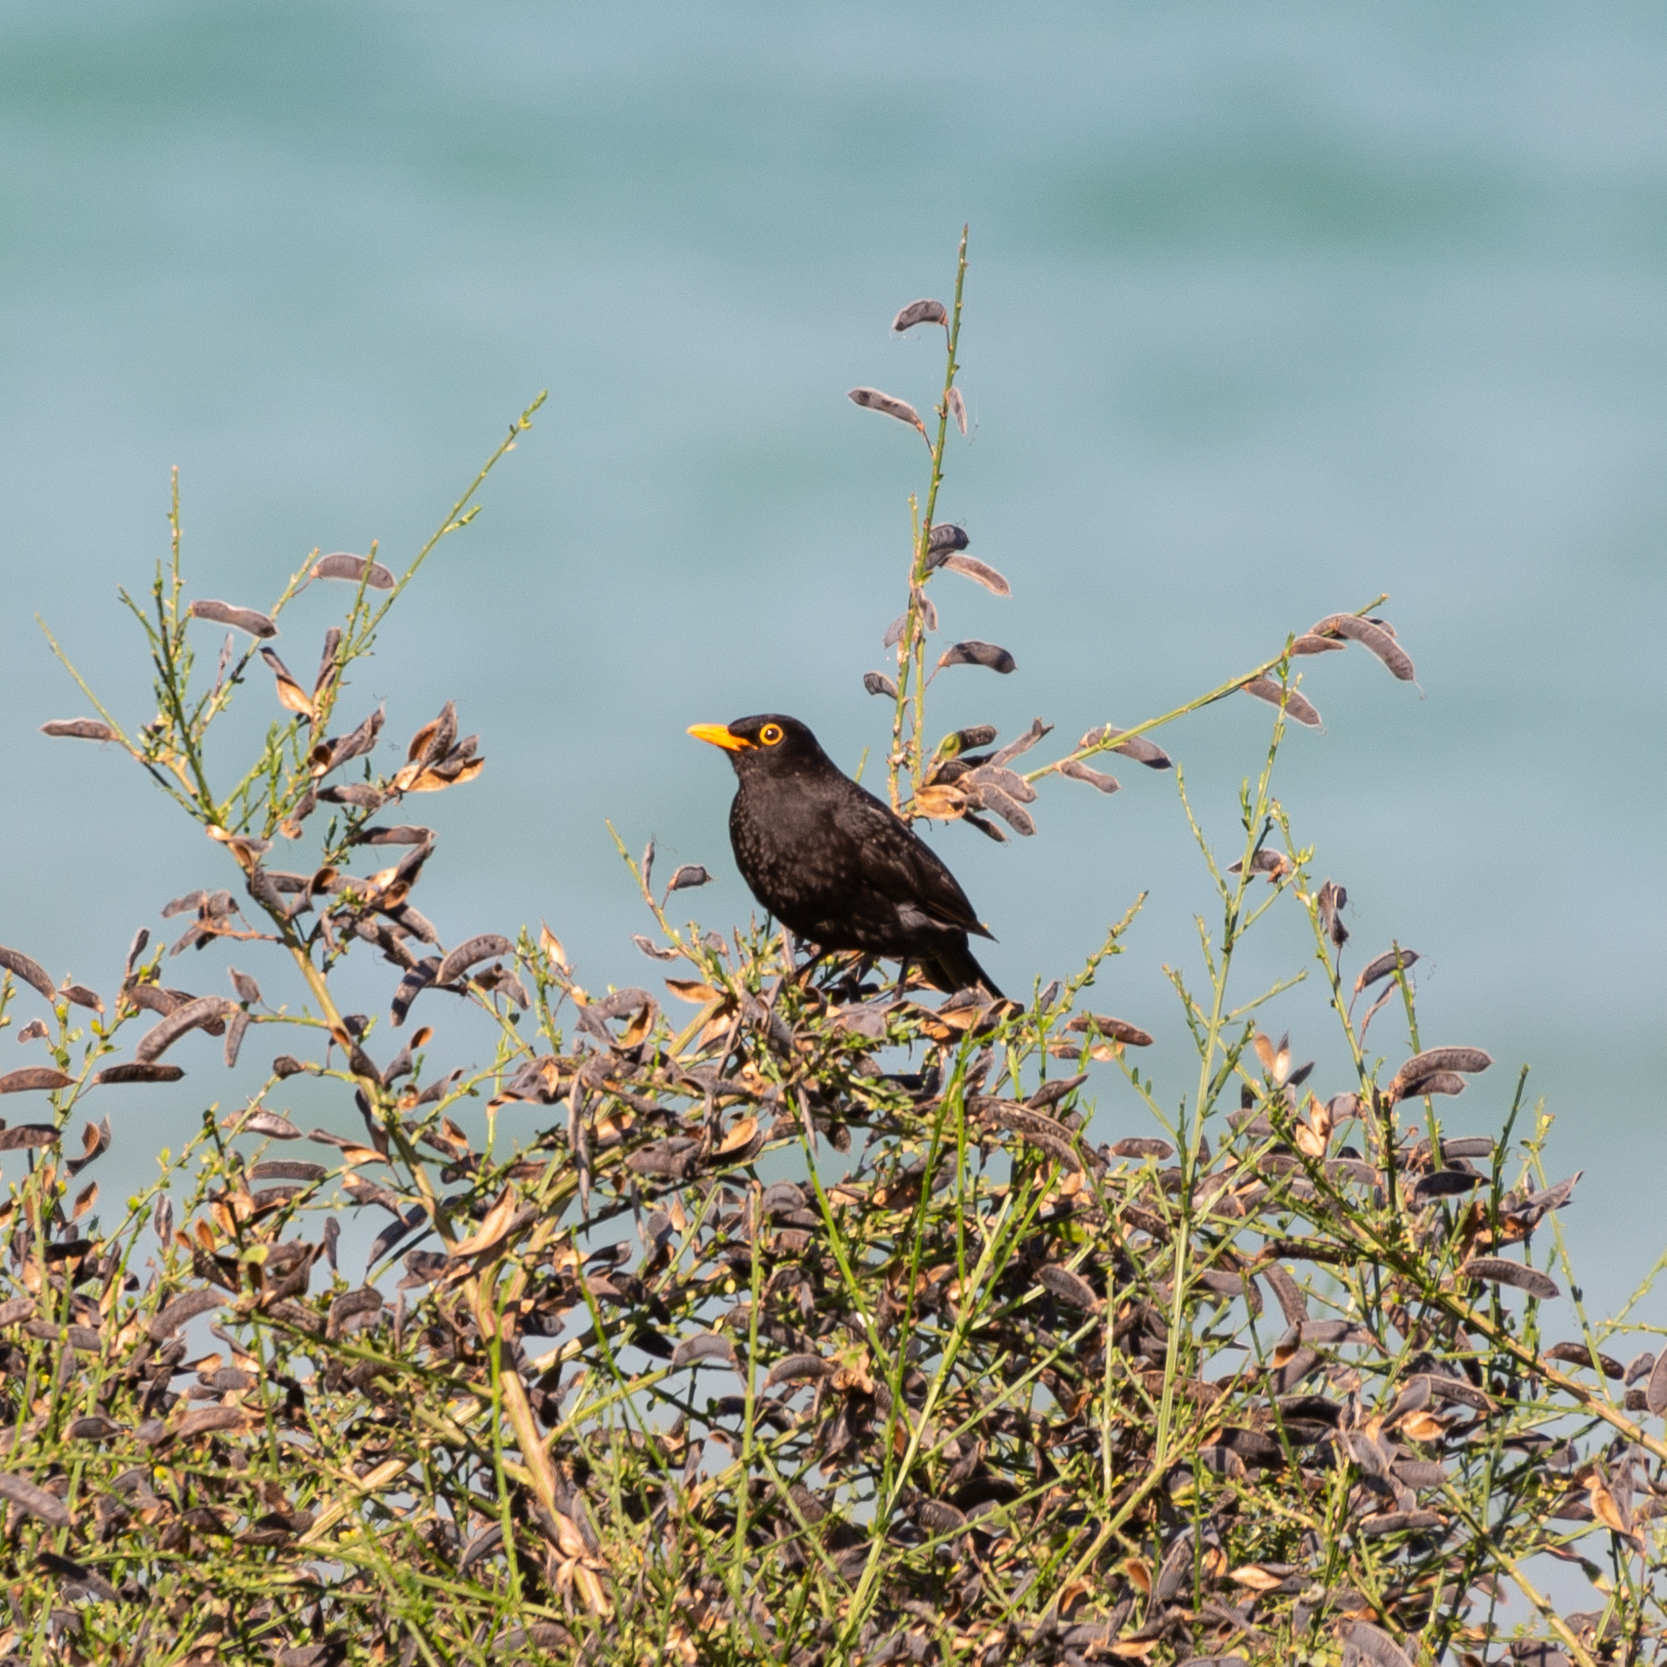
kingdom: Animalia
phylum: Chordata
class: Aves
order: Passeriformes
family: Turdidae
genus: Turdus
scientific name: Turdus merula
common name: Common blackbird
